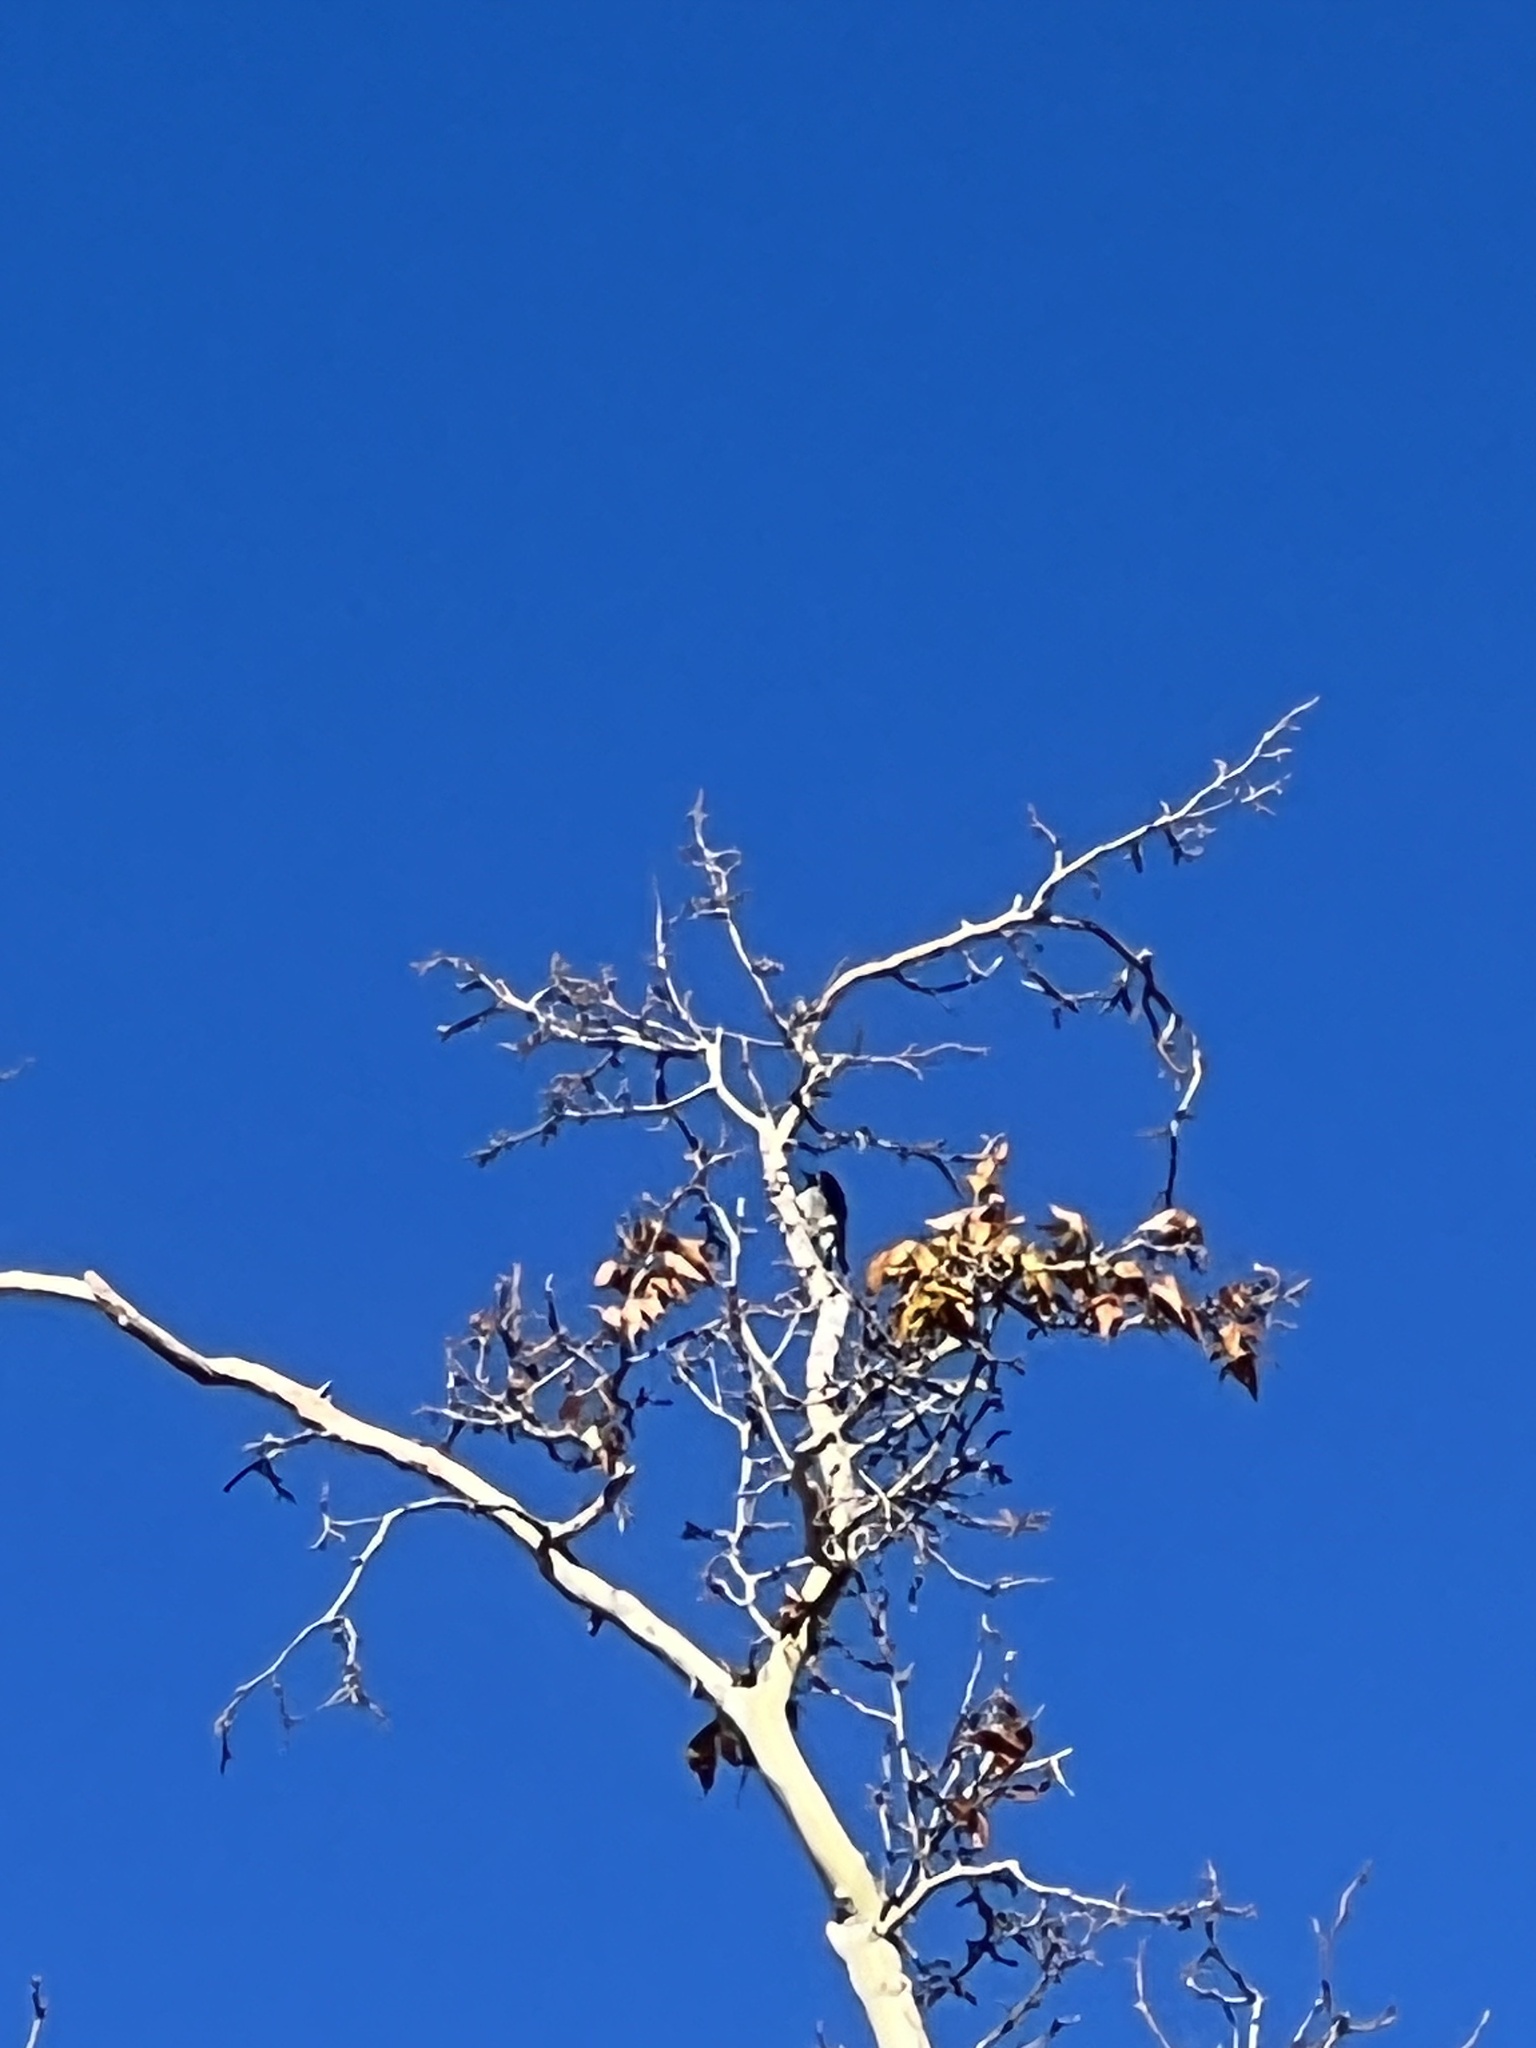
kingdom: Animalia
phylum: Chordata
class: Aves
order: Piciformes
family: Picidae
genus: Melanerpes
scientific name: Melanerpes formicivorus
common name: Acorn woodpecker
